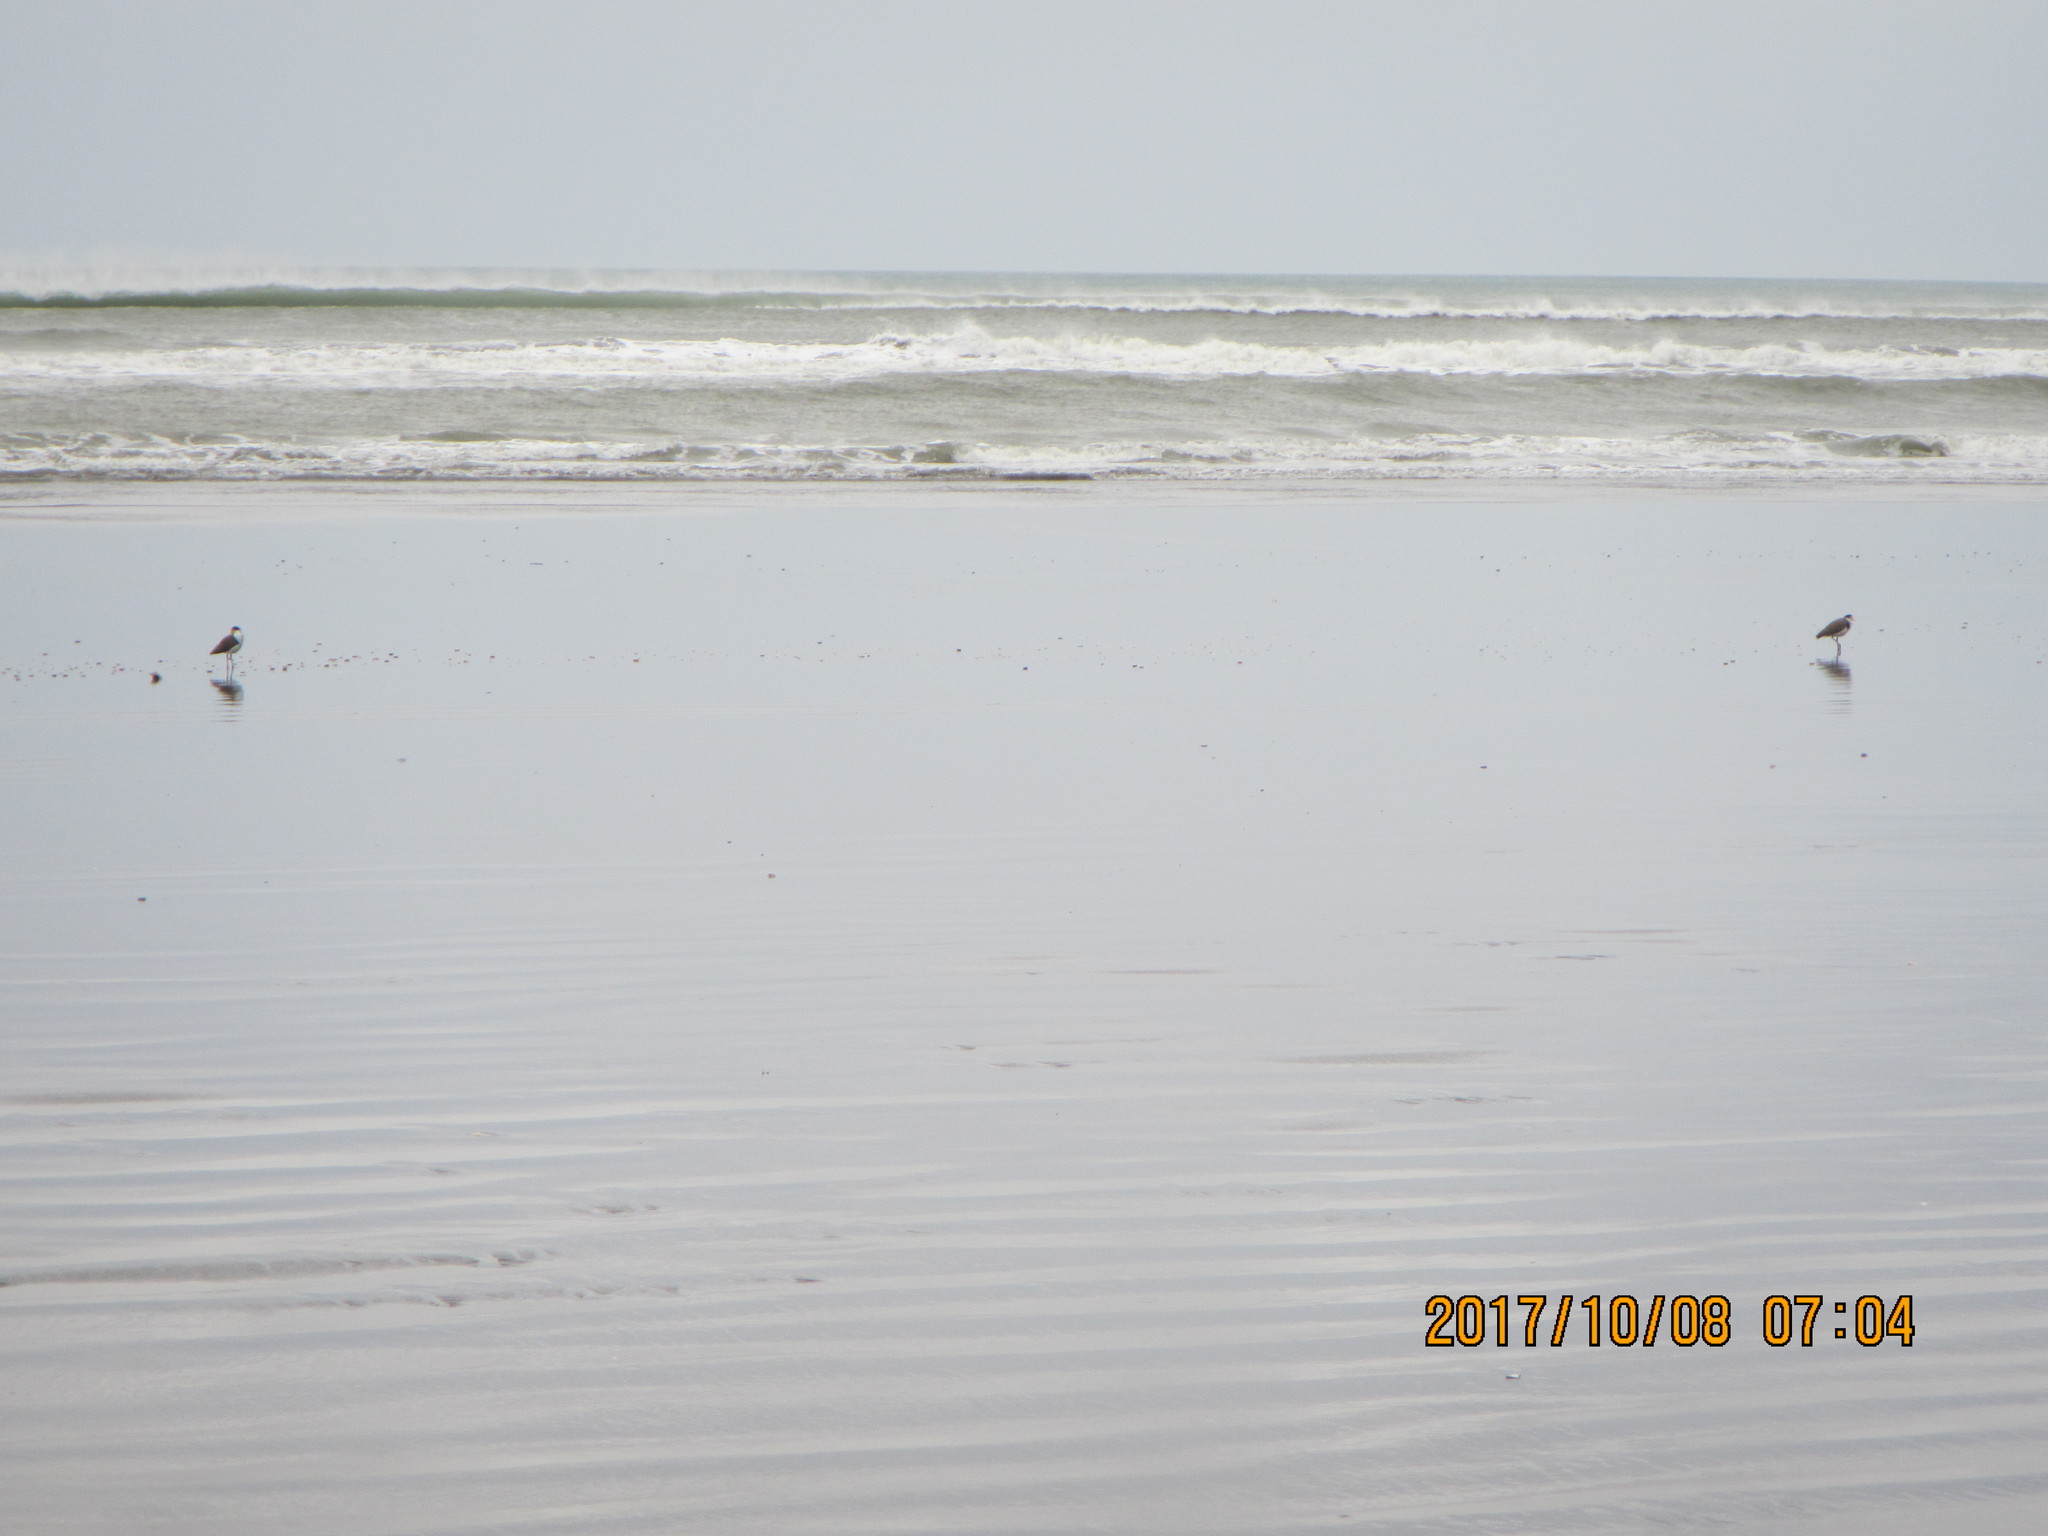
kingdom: Animalia
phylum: Chordata
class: Aves
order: Charadriiformes
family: Charadriidae
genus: Vanellus
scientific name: Vanellus miles
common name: Masked lapwing
